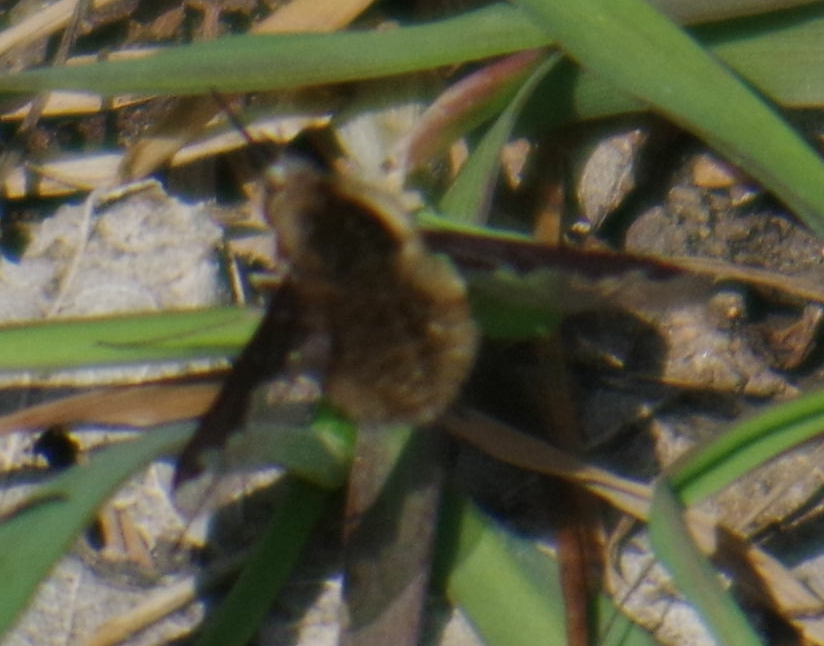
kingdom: Animalia
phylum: Arthropoda
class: Insecta
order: Diptera
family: Bombyliidae
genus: Bombylius
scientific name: Bombylius major
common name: Bee fly
